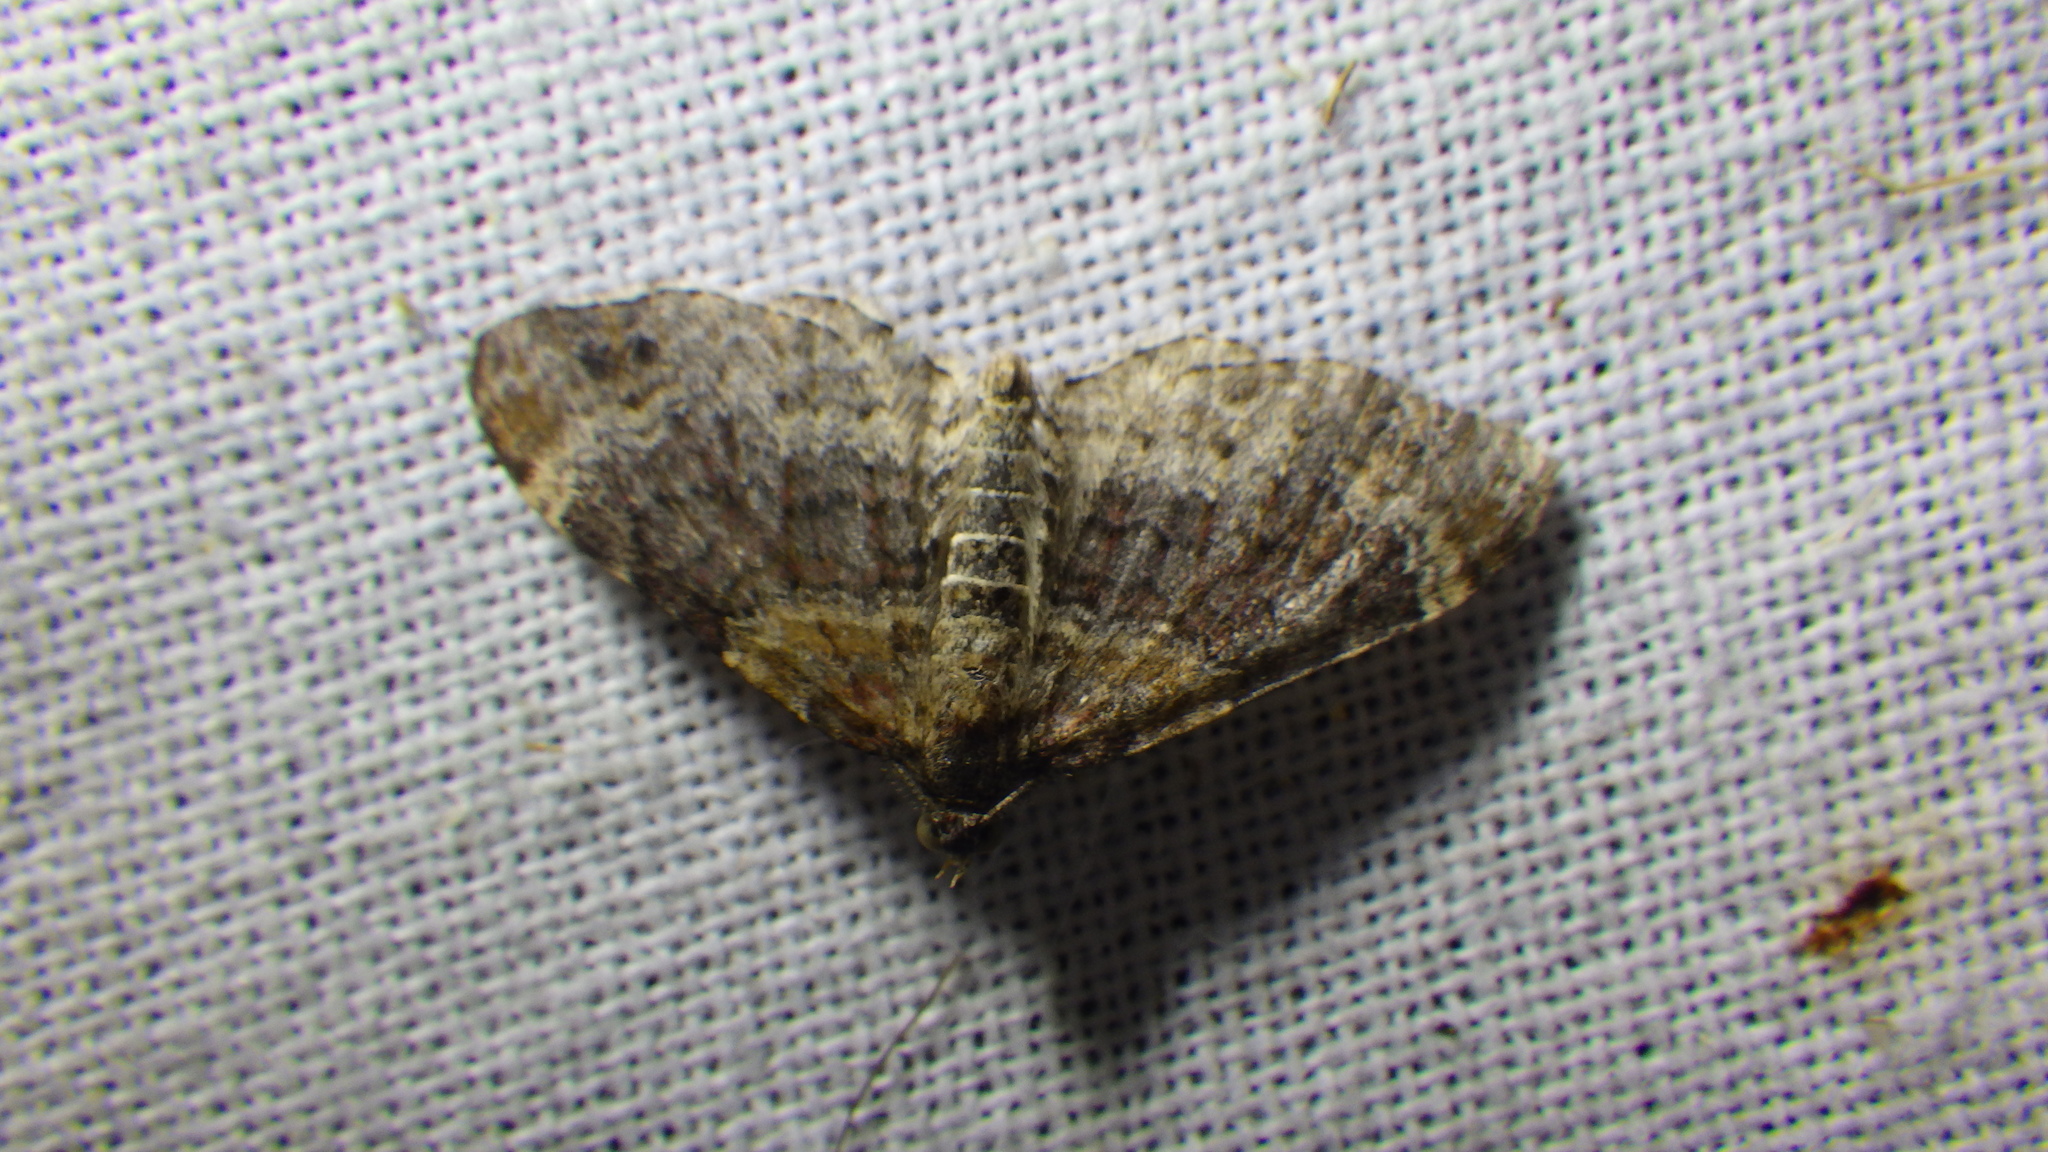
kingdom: Animalia
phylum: Arthropoda
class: Insecta
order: Lepidoptera
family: Geometridae
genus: Xanthorhoe
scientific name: Xanthorhoe ferrugata
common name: Dark-barred twin-spot carpet
